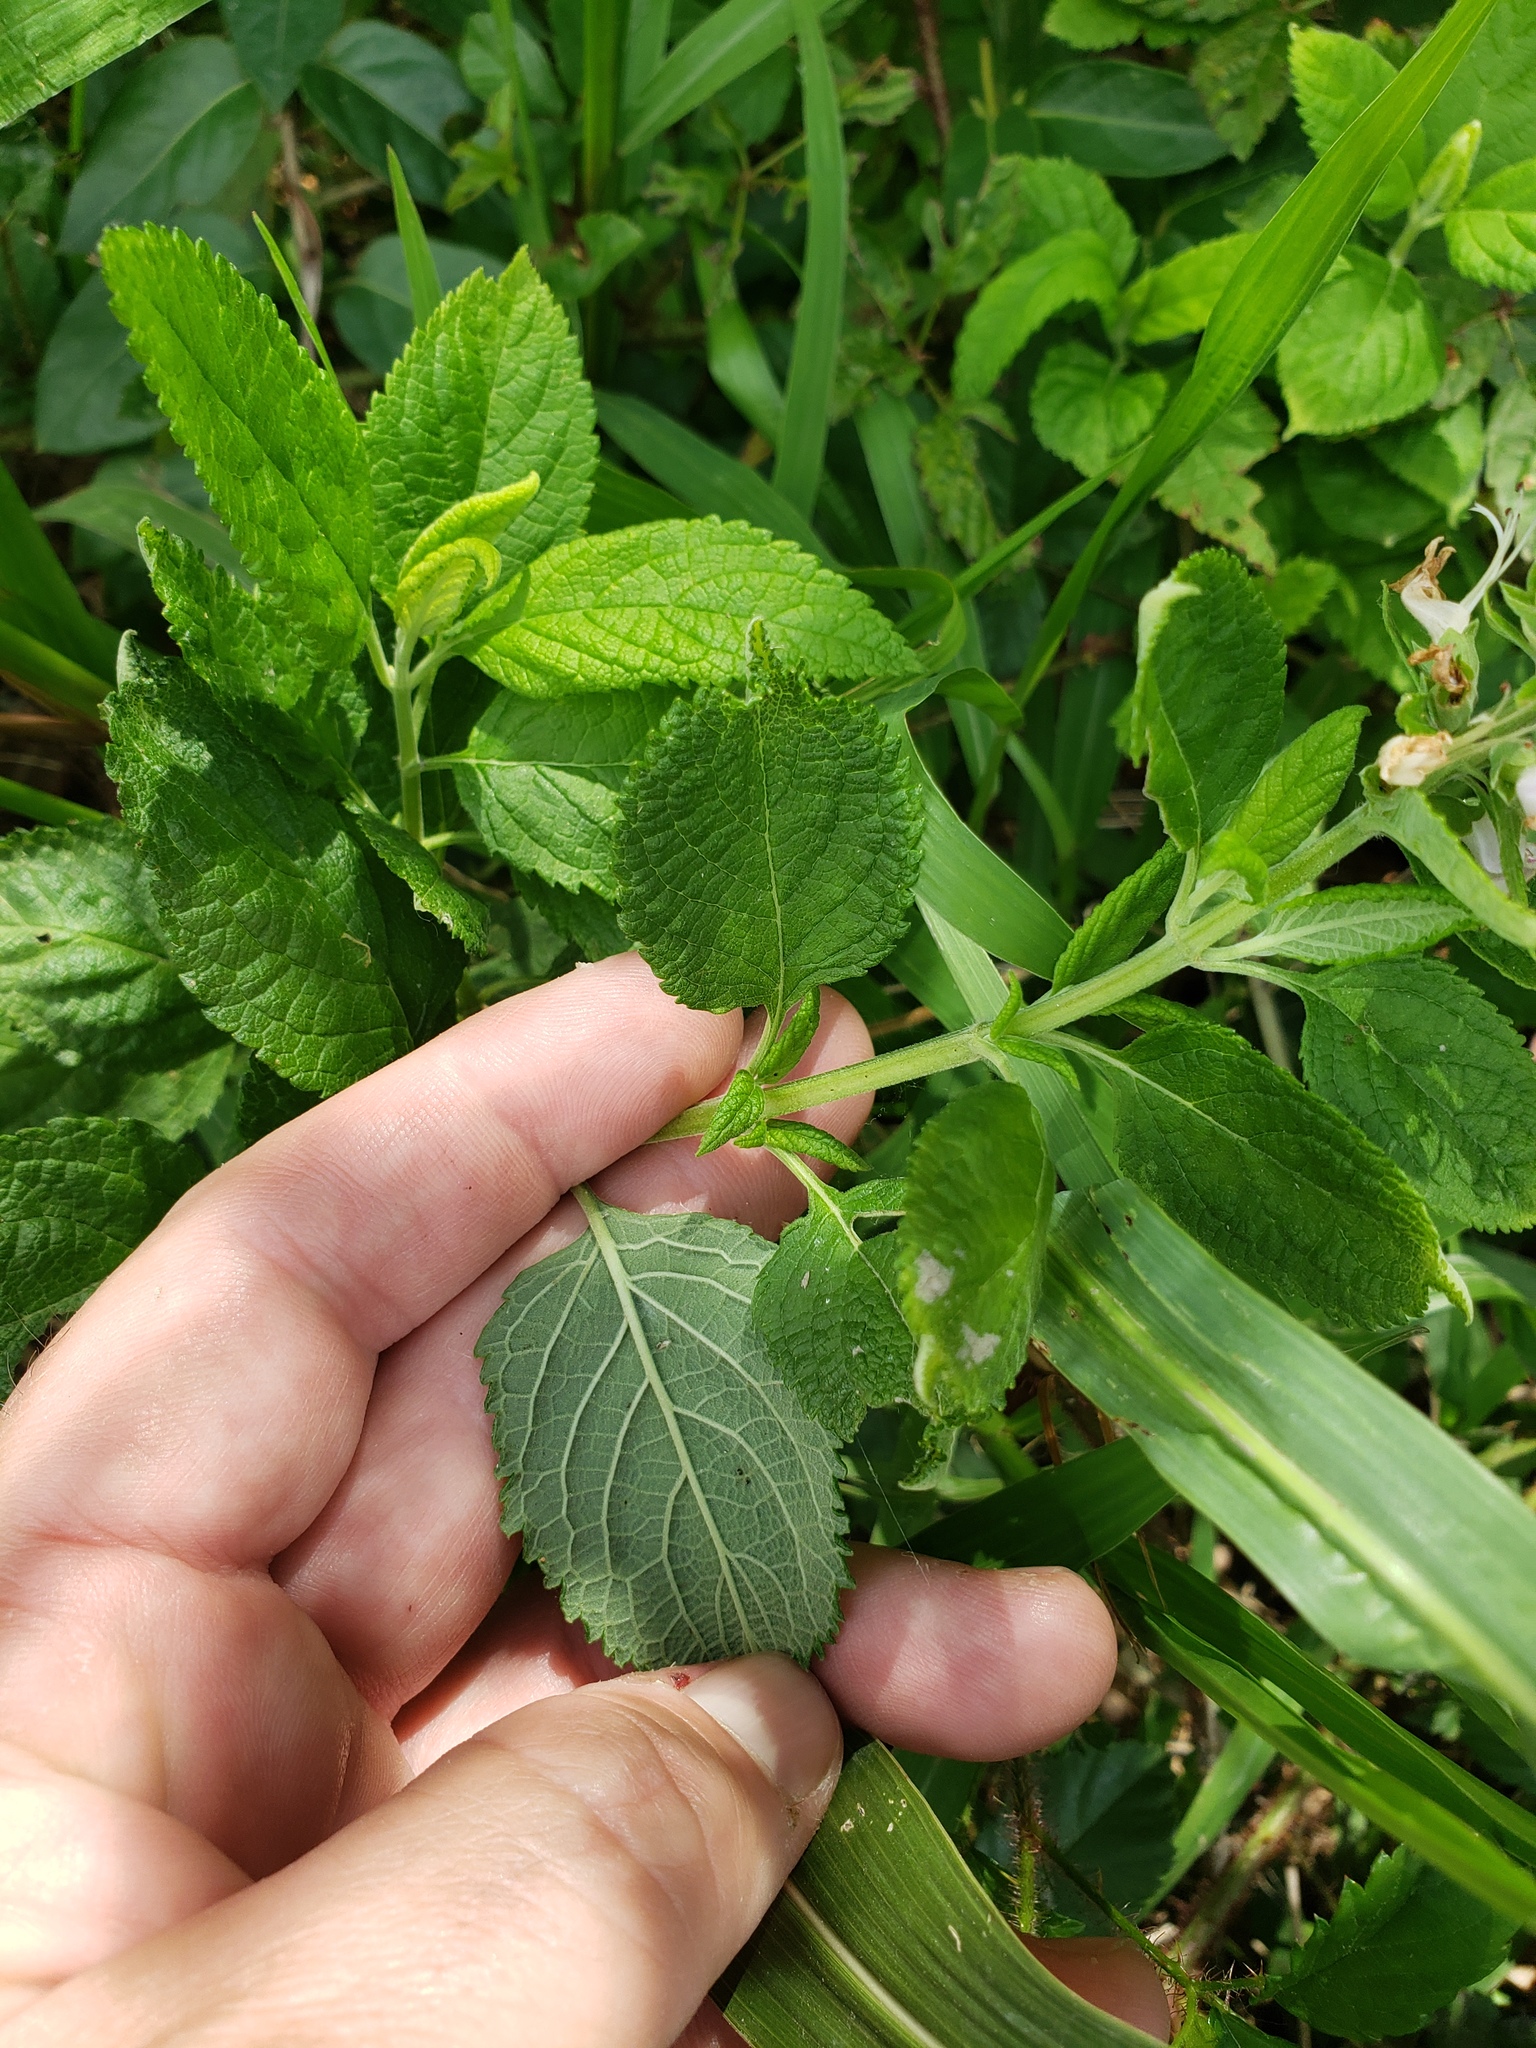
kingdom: Plantae
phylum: Tracheophyta
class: Magnoliopsida
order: Lamiales
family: Lamiaceae
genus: Teucrium
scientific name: Teucrium canadense
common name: American germander
